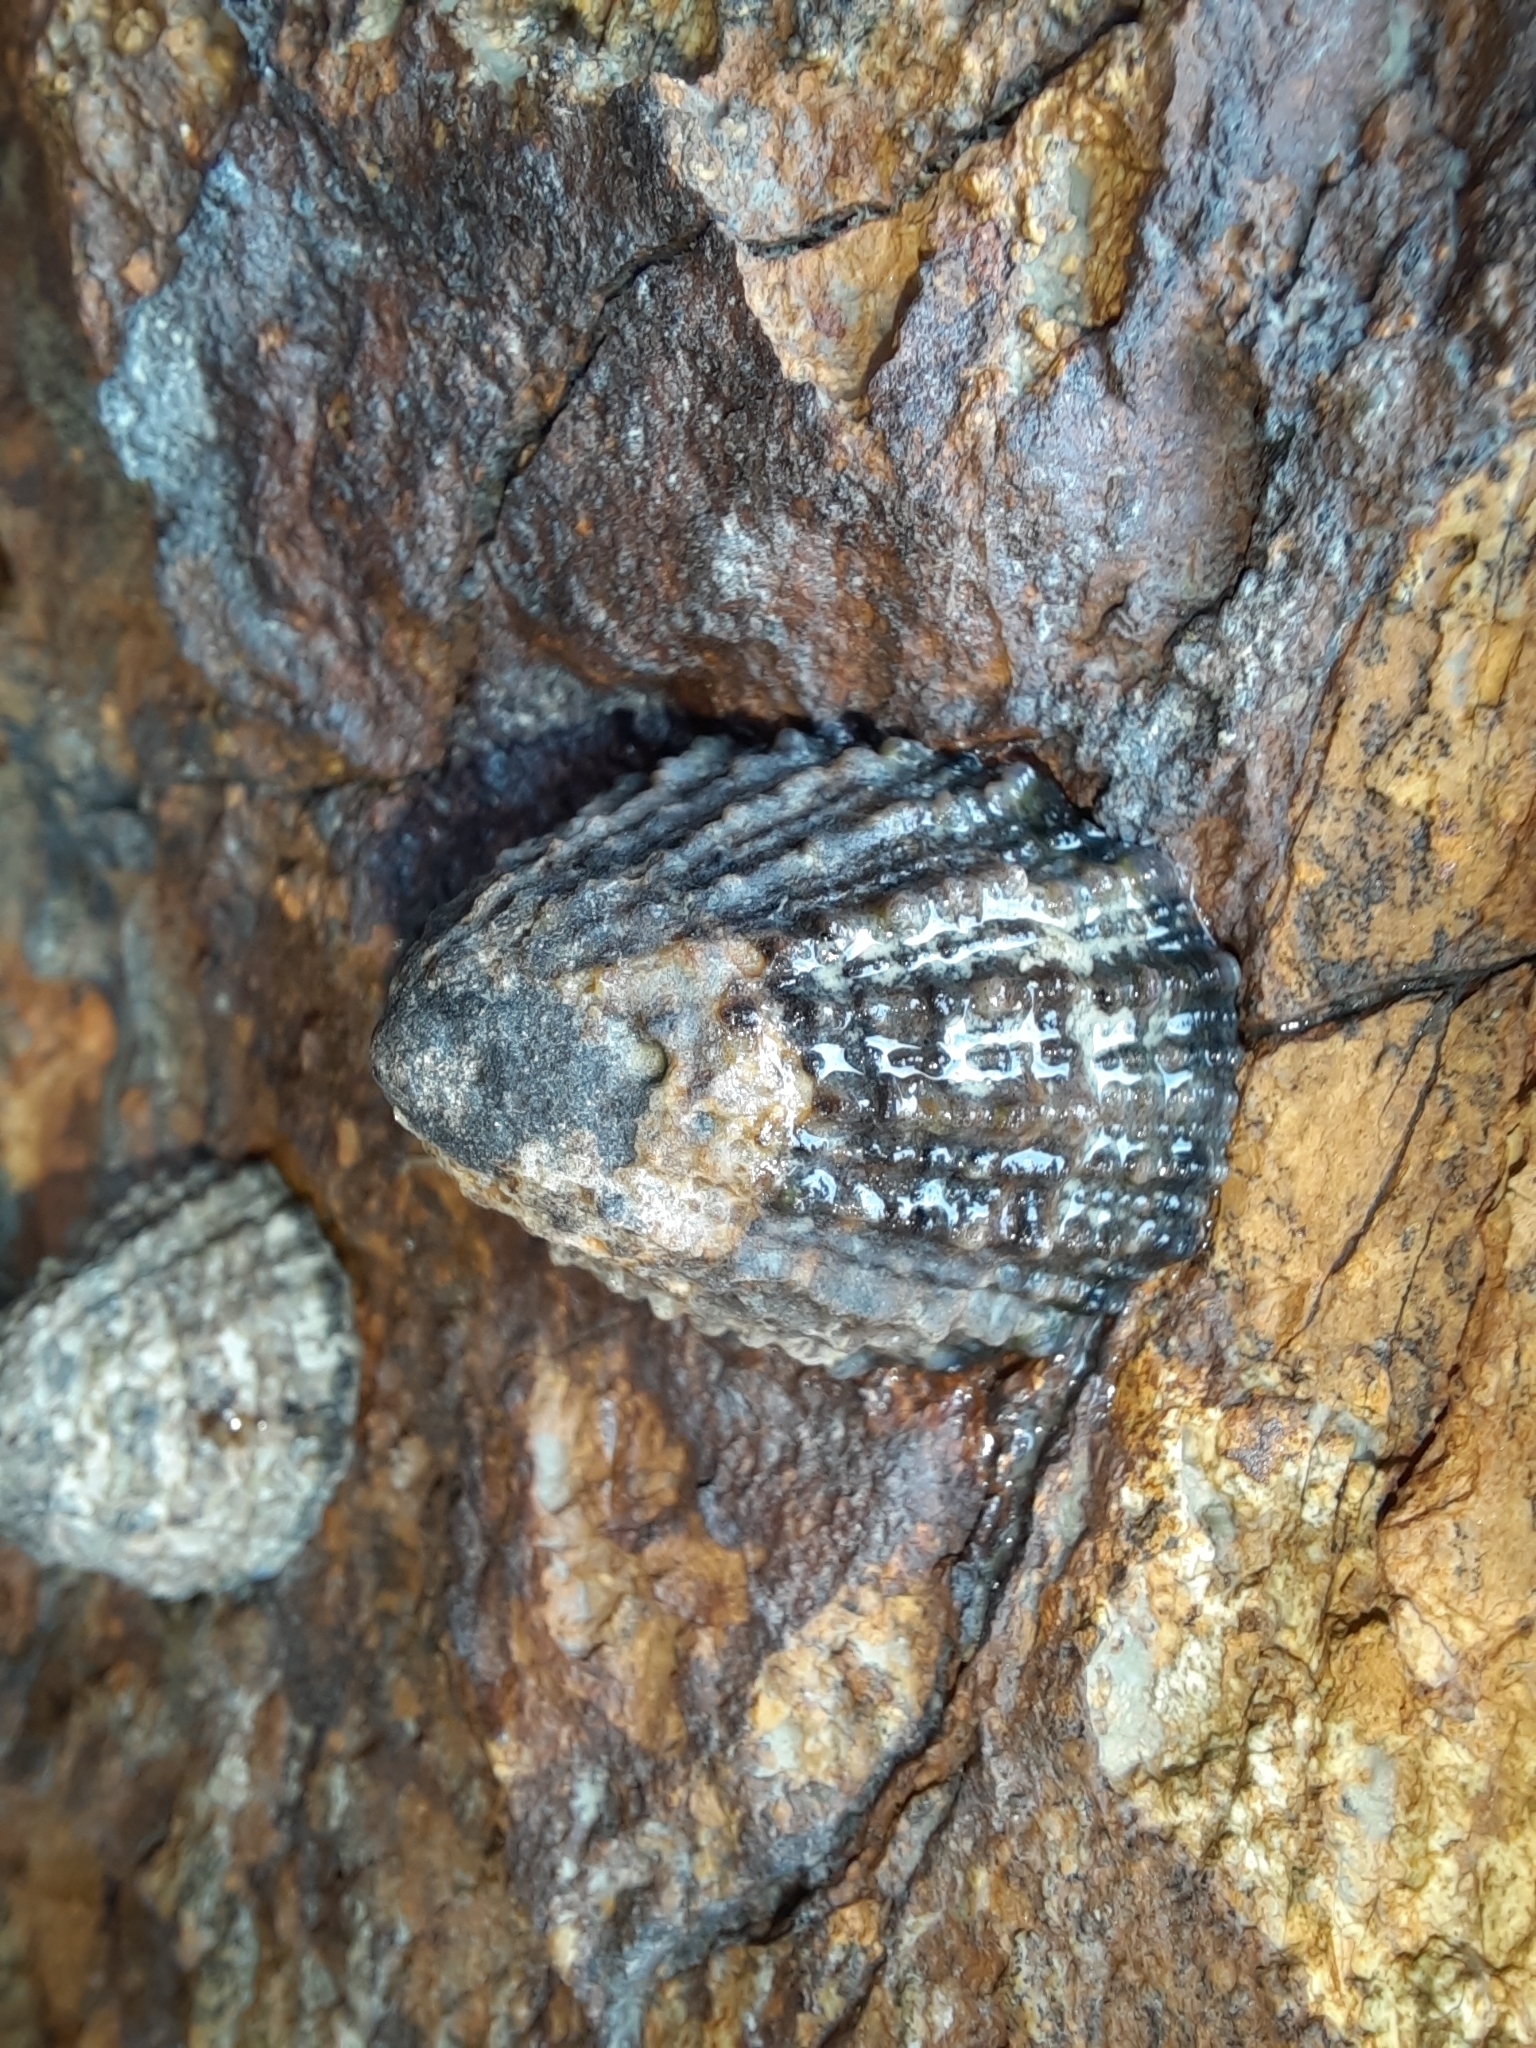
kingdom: Animalia
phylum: Mollusca
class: Gastropoda
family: Nacellidae
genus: Cellana
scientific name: Cellana ornata
